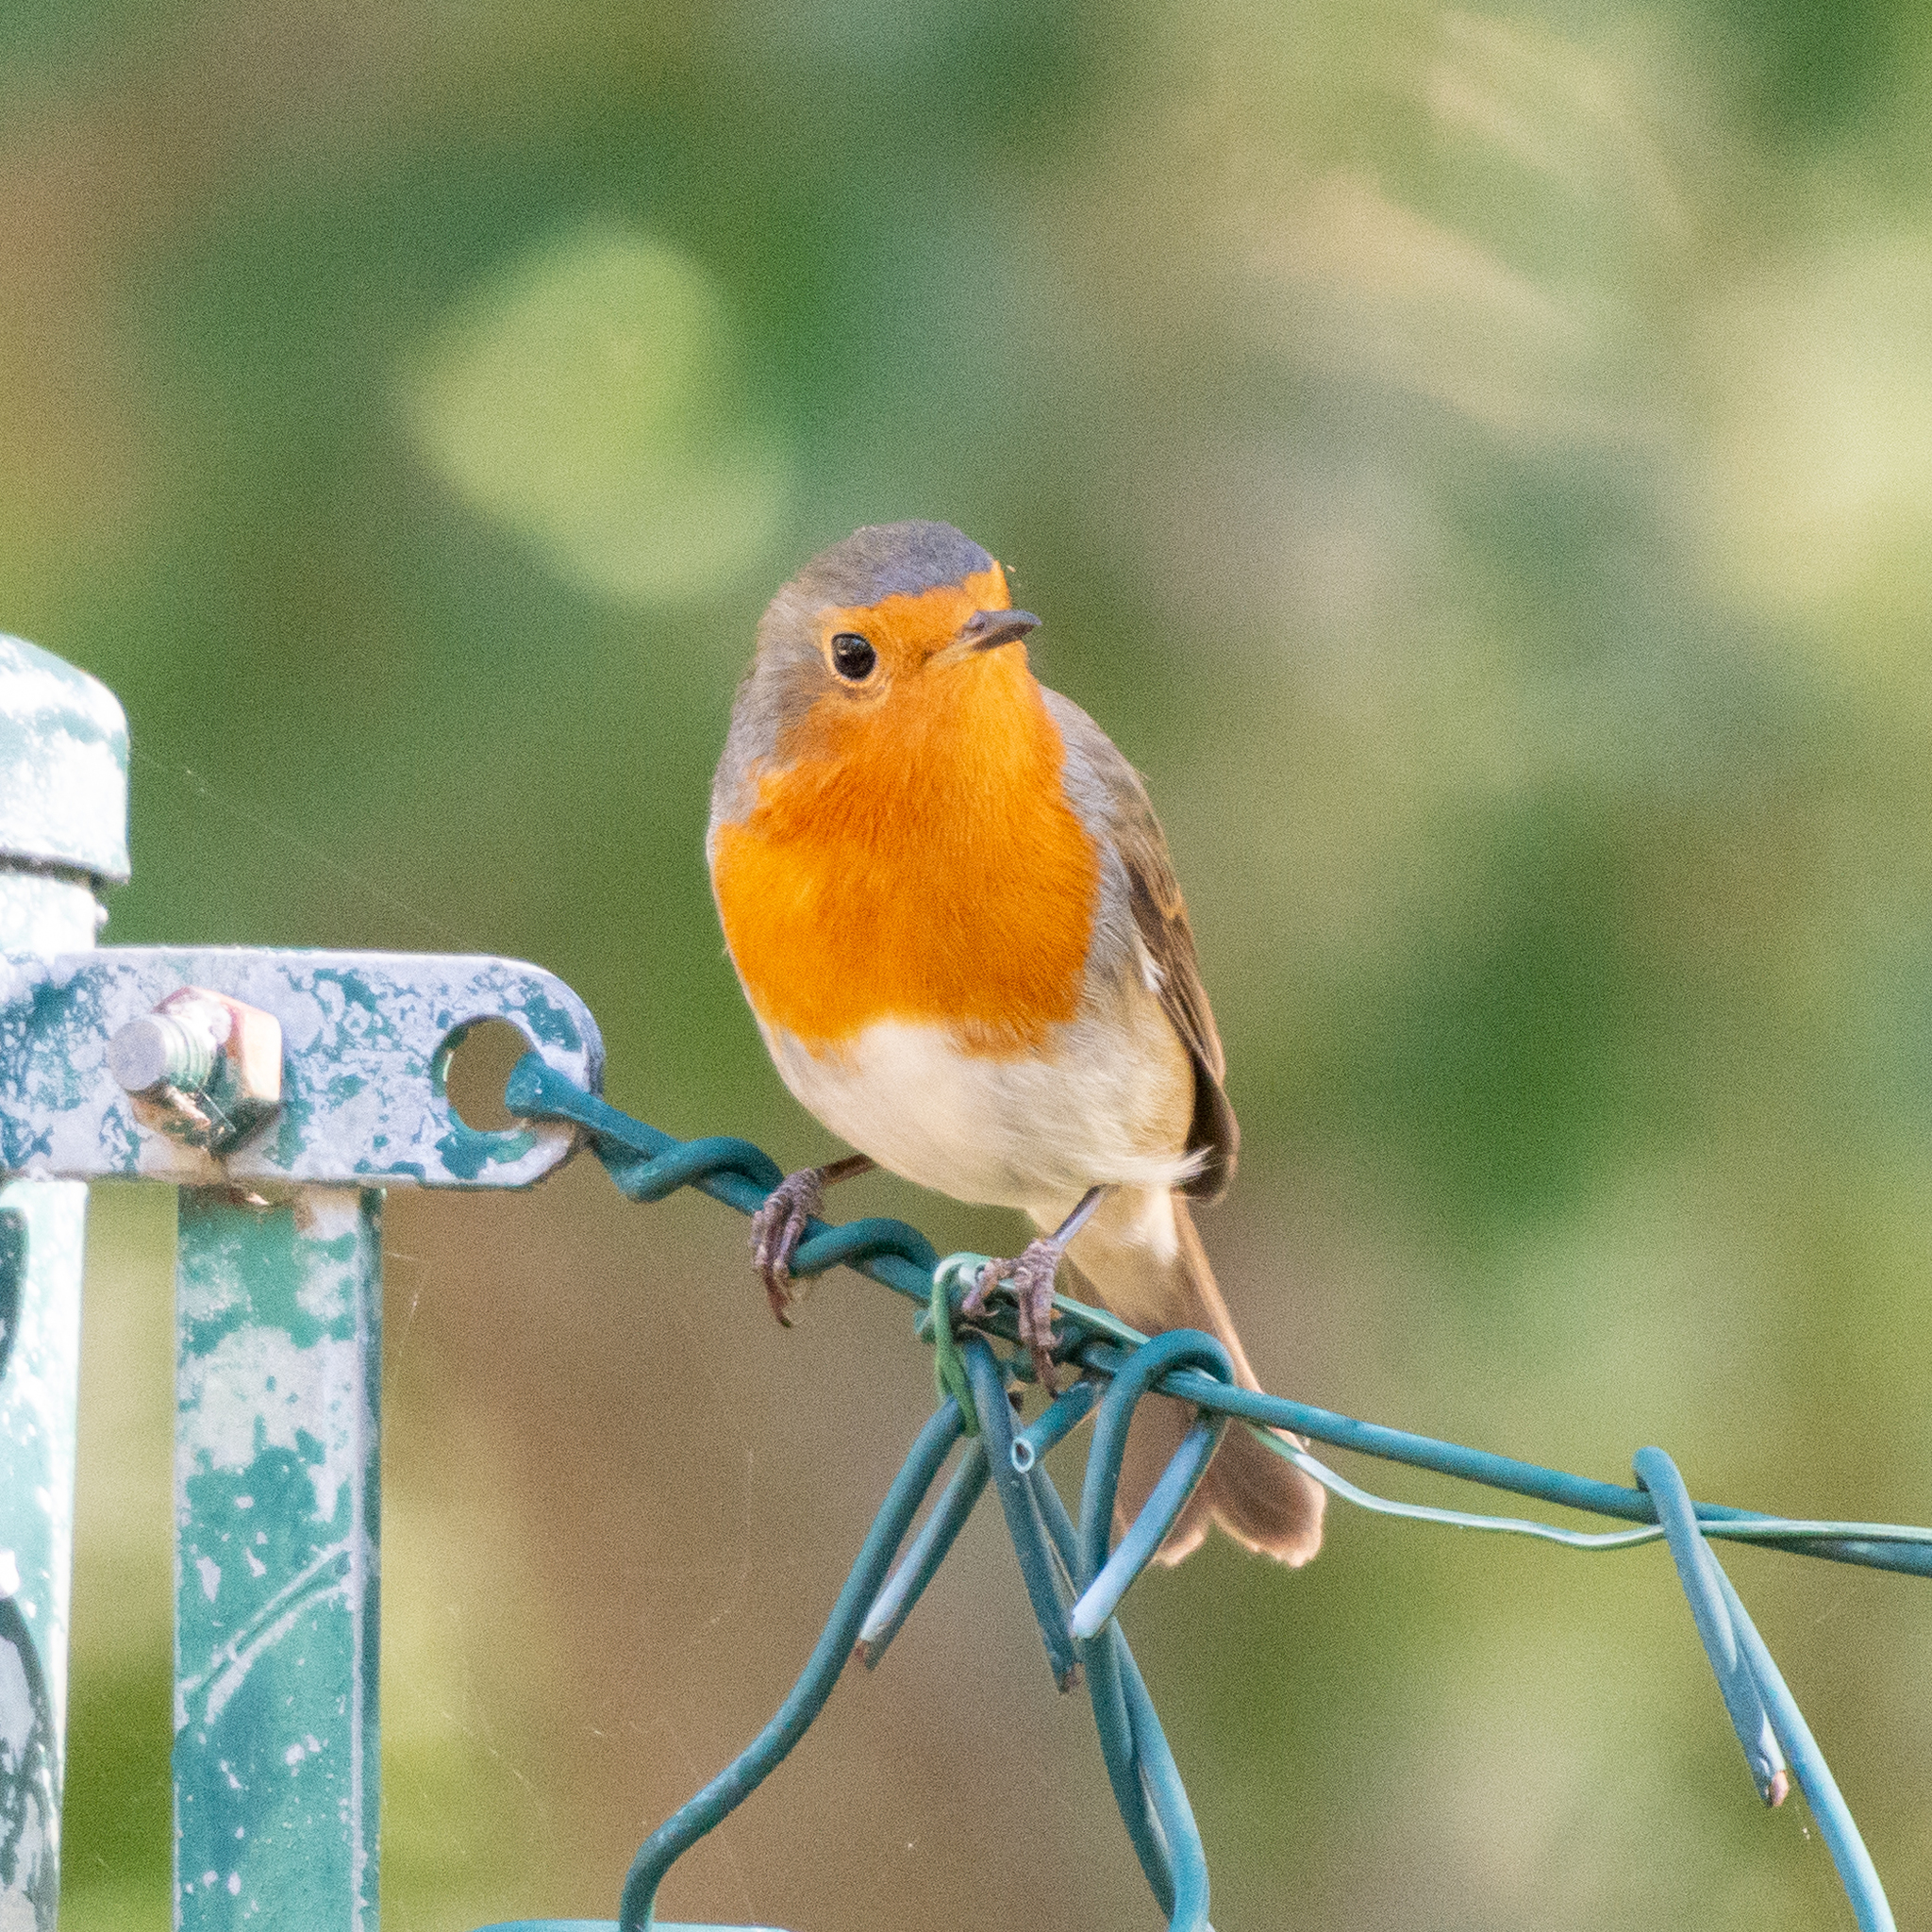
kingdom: Animalia
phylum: Chordata
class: Aves
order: Passeriformes
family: Muscicapidae
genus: Erithacus
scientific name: Erithacus rubecula
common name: European robin
